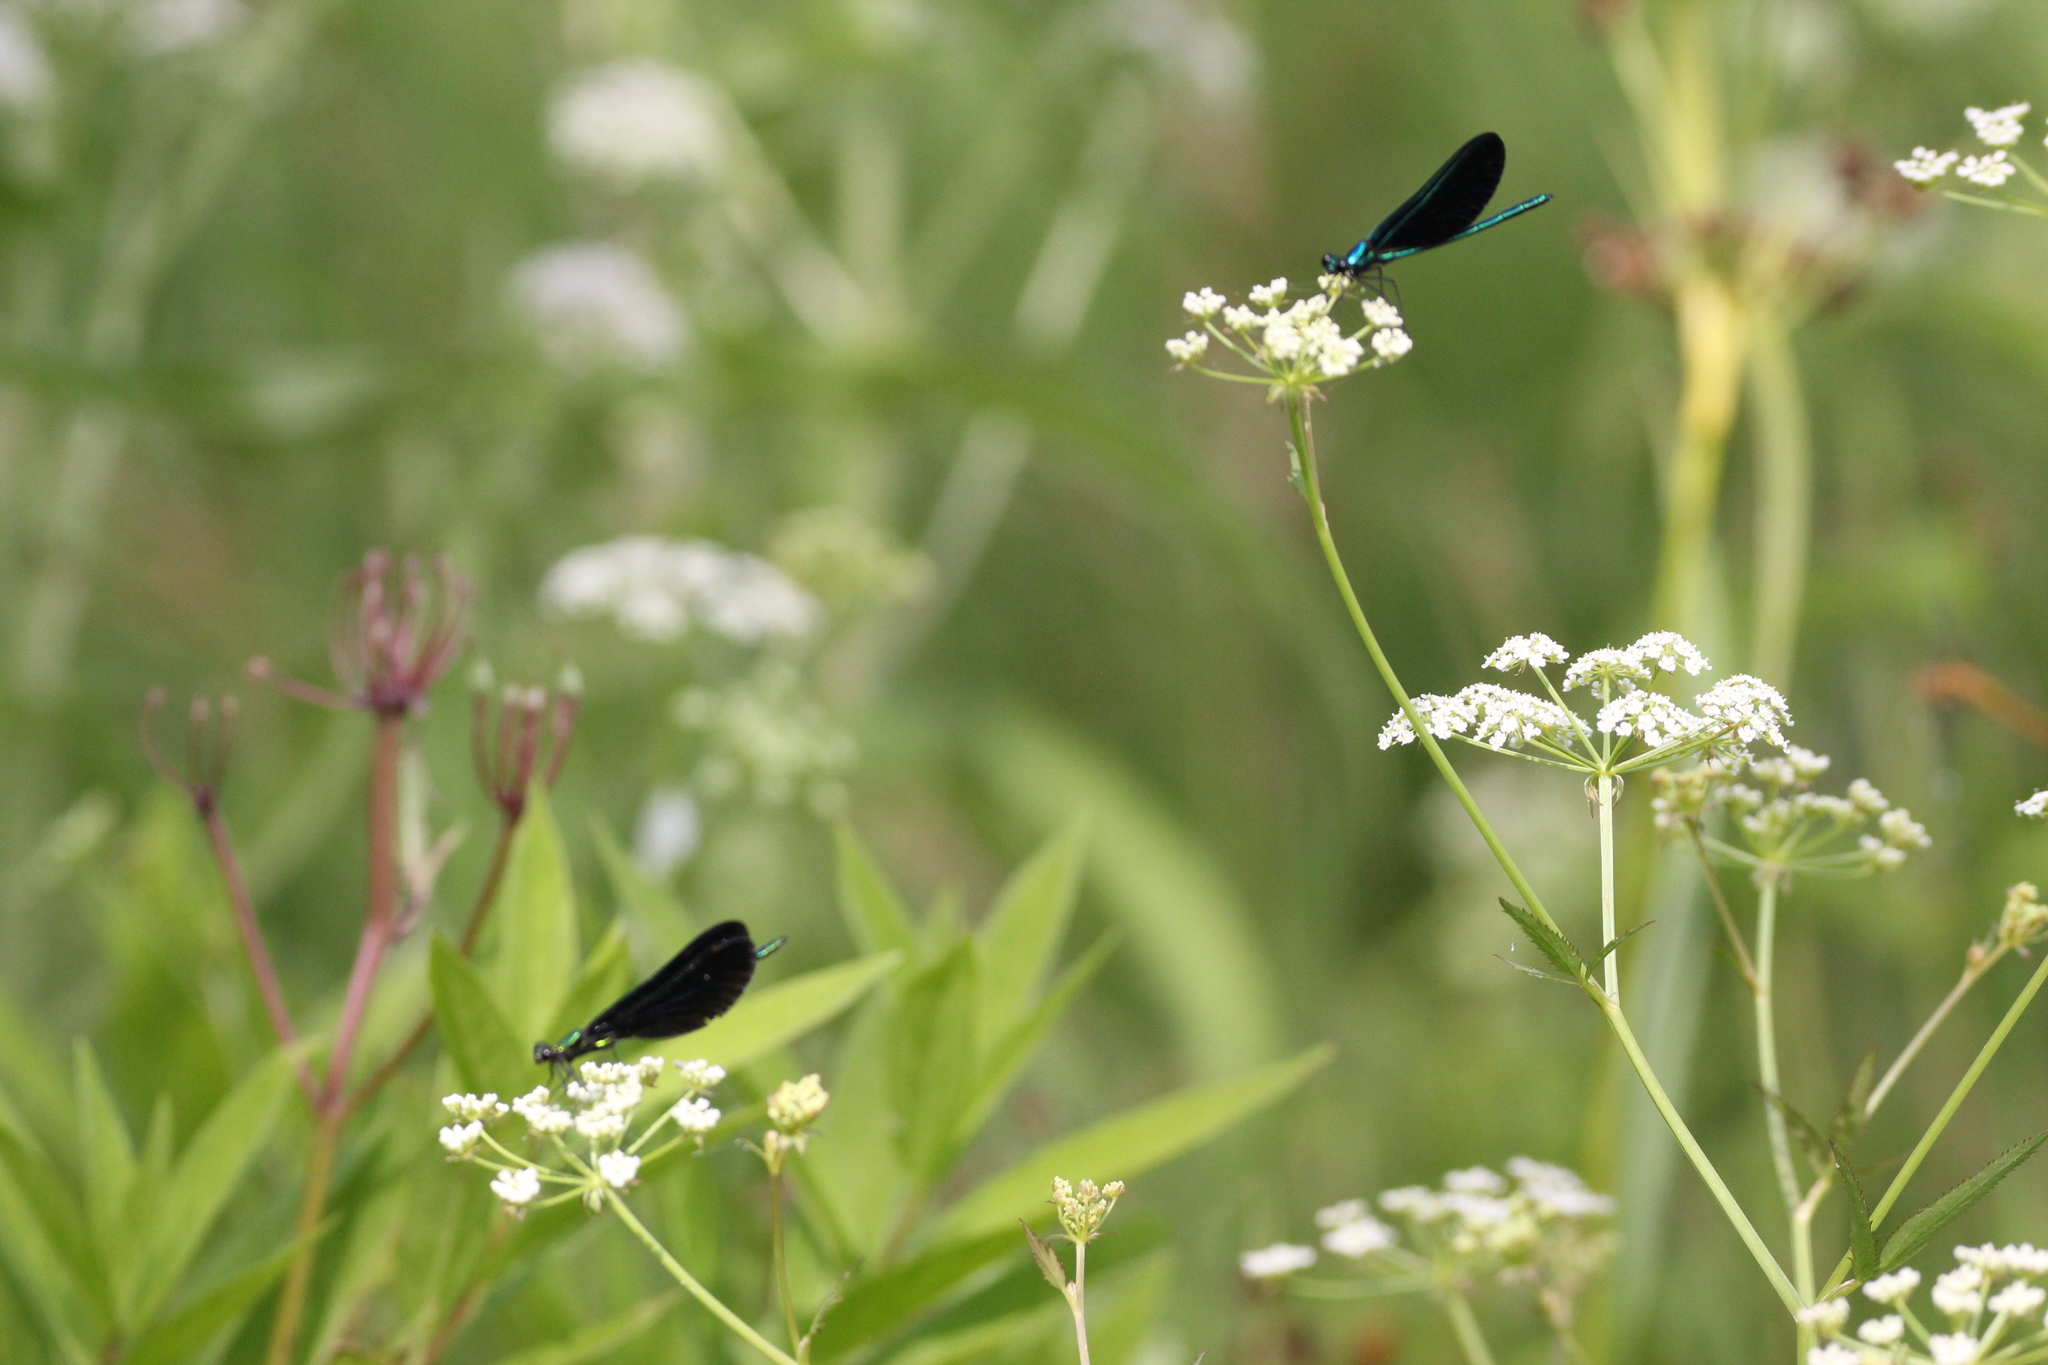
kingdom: Animalia
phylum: Arthropoda
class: Insecta
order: Odonata
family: Calopterygidae
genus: Calopteryx
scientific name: Calopteryx maculata
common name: Ebony jewelwing
